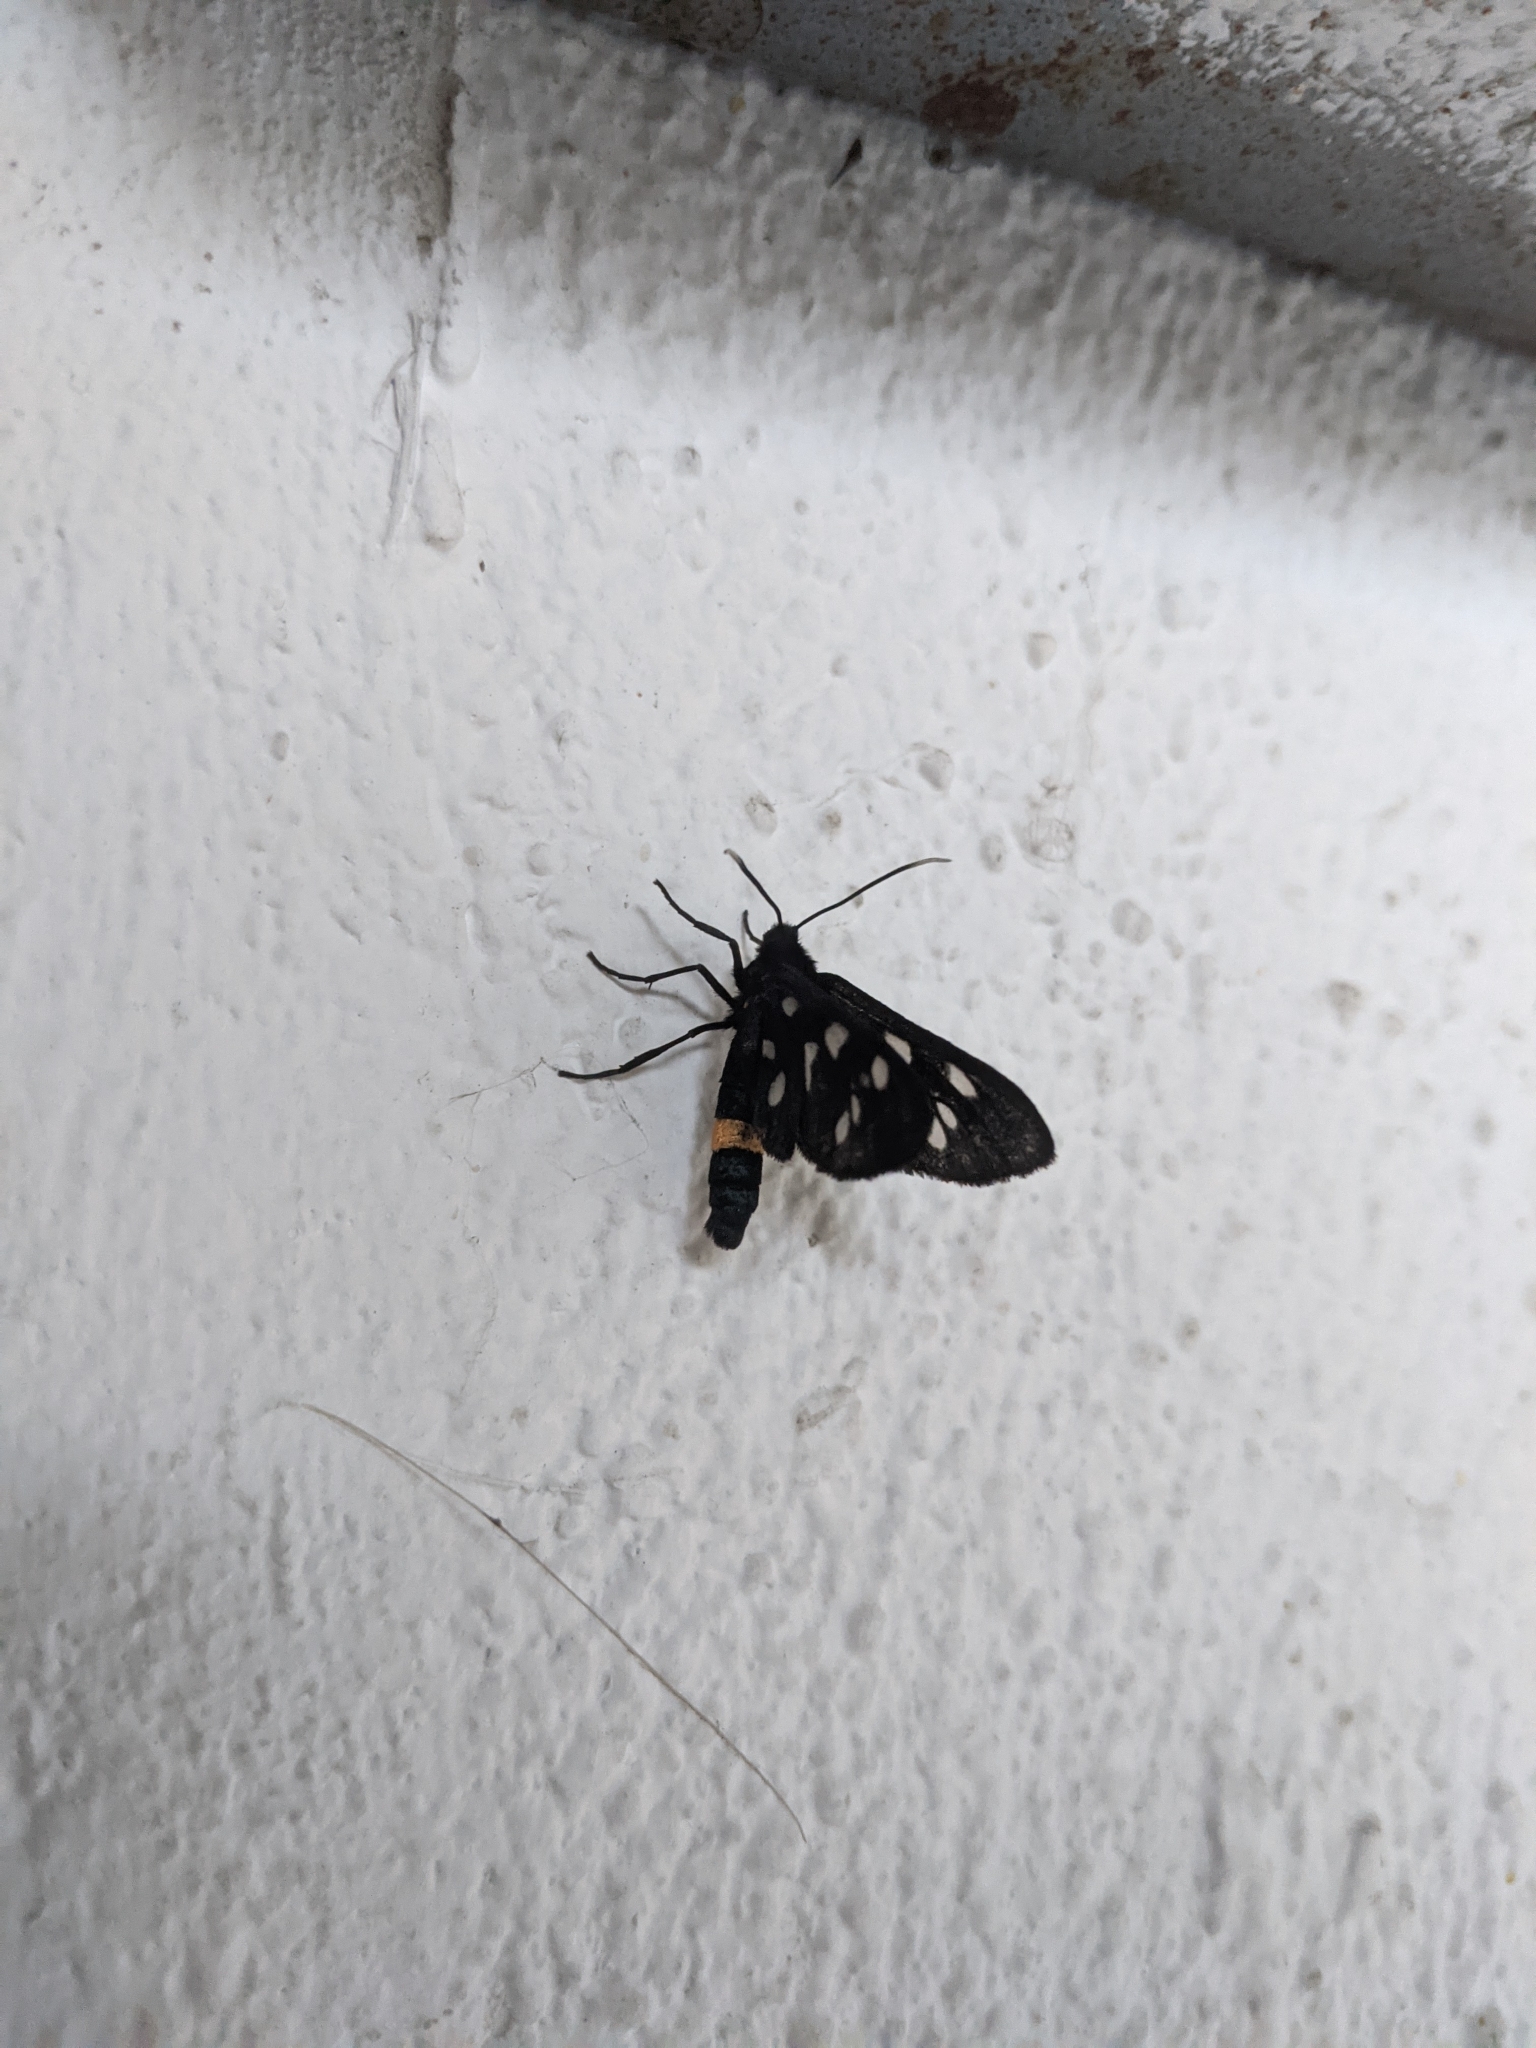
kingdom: Animalia
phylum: Arthropoda
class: Insecta
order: Lepidoptera
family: Erebidae
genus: Amata
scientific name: Amata phegea
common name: Nine-spotted
